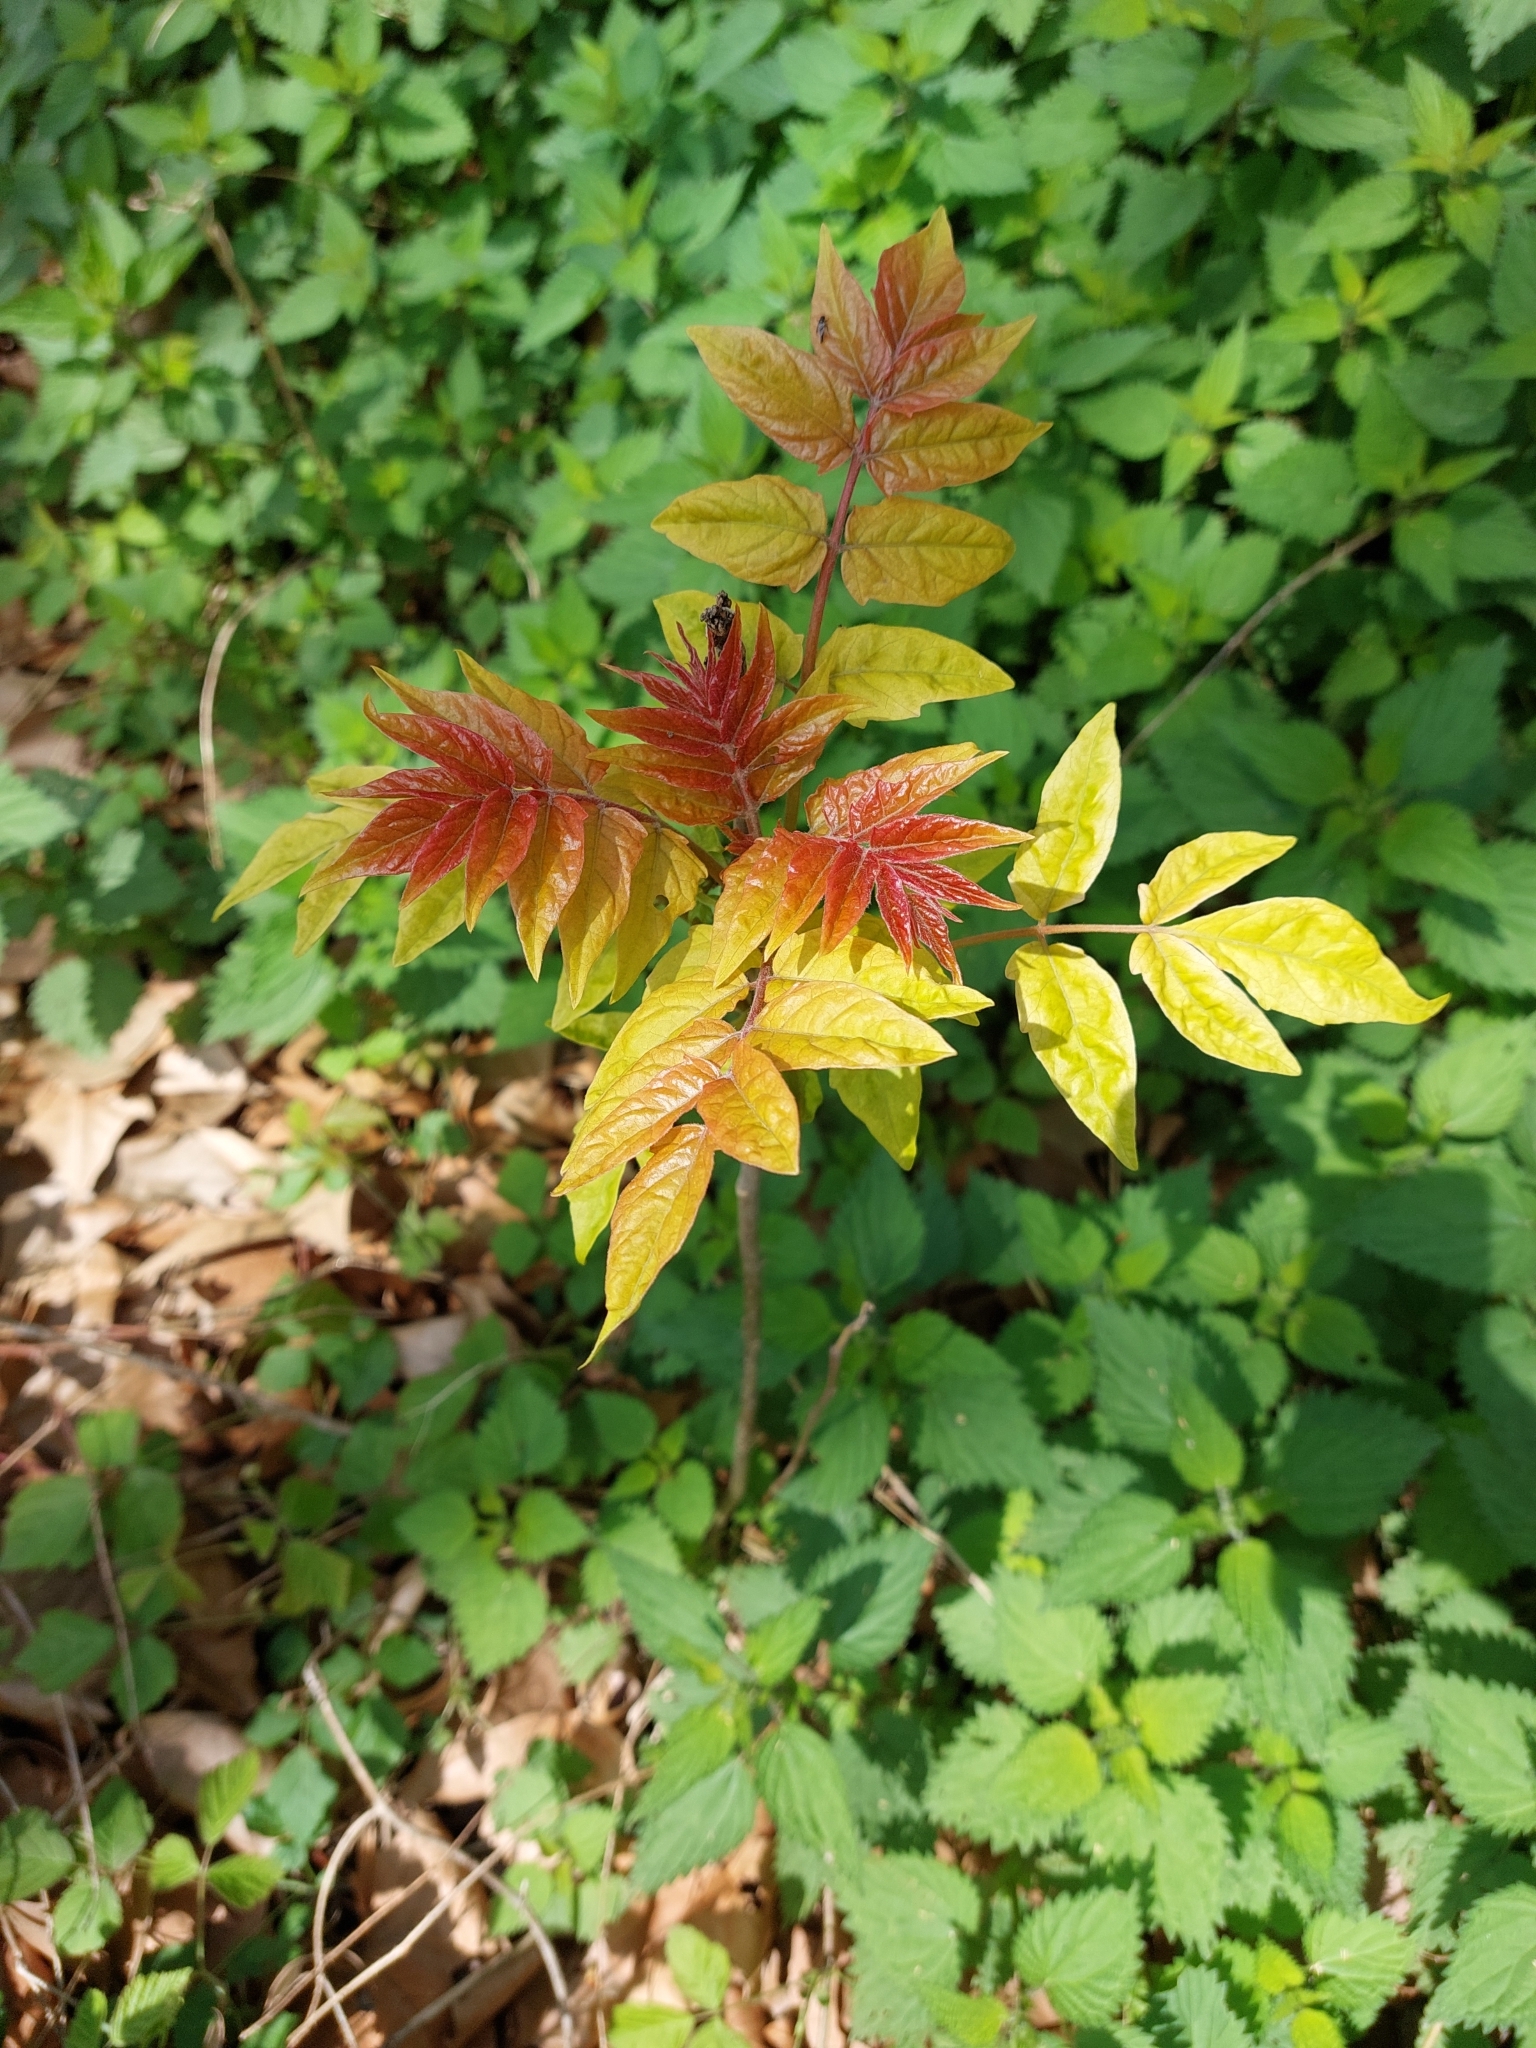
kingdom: Plantae
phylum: Tracheophyta
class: Magnoliopsida
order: Sapindales
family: Simaroubaceae
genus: Ailanthus
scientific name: Ailanthus altissima
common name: Tree-of-heaven
